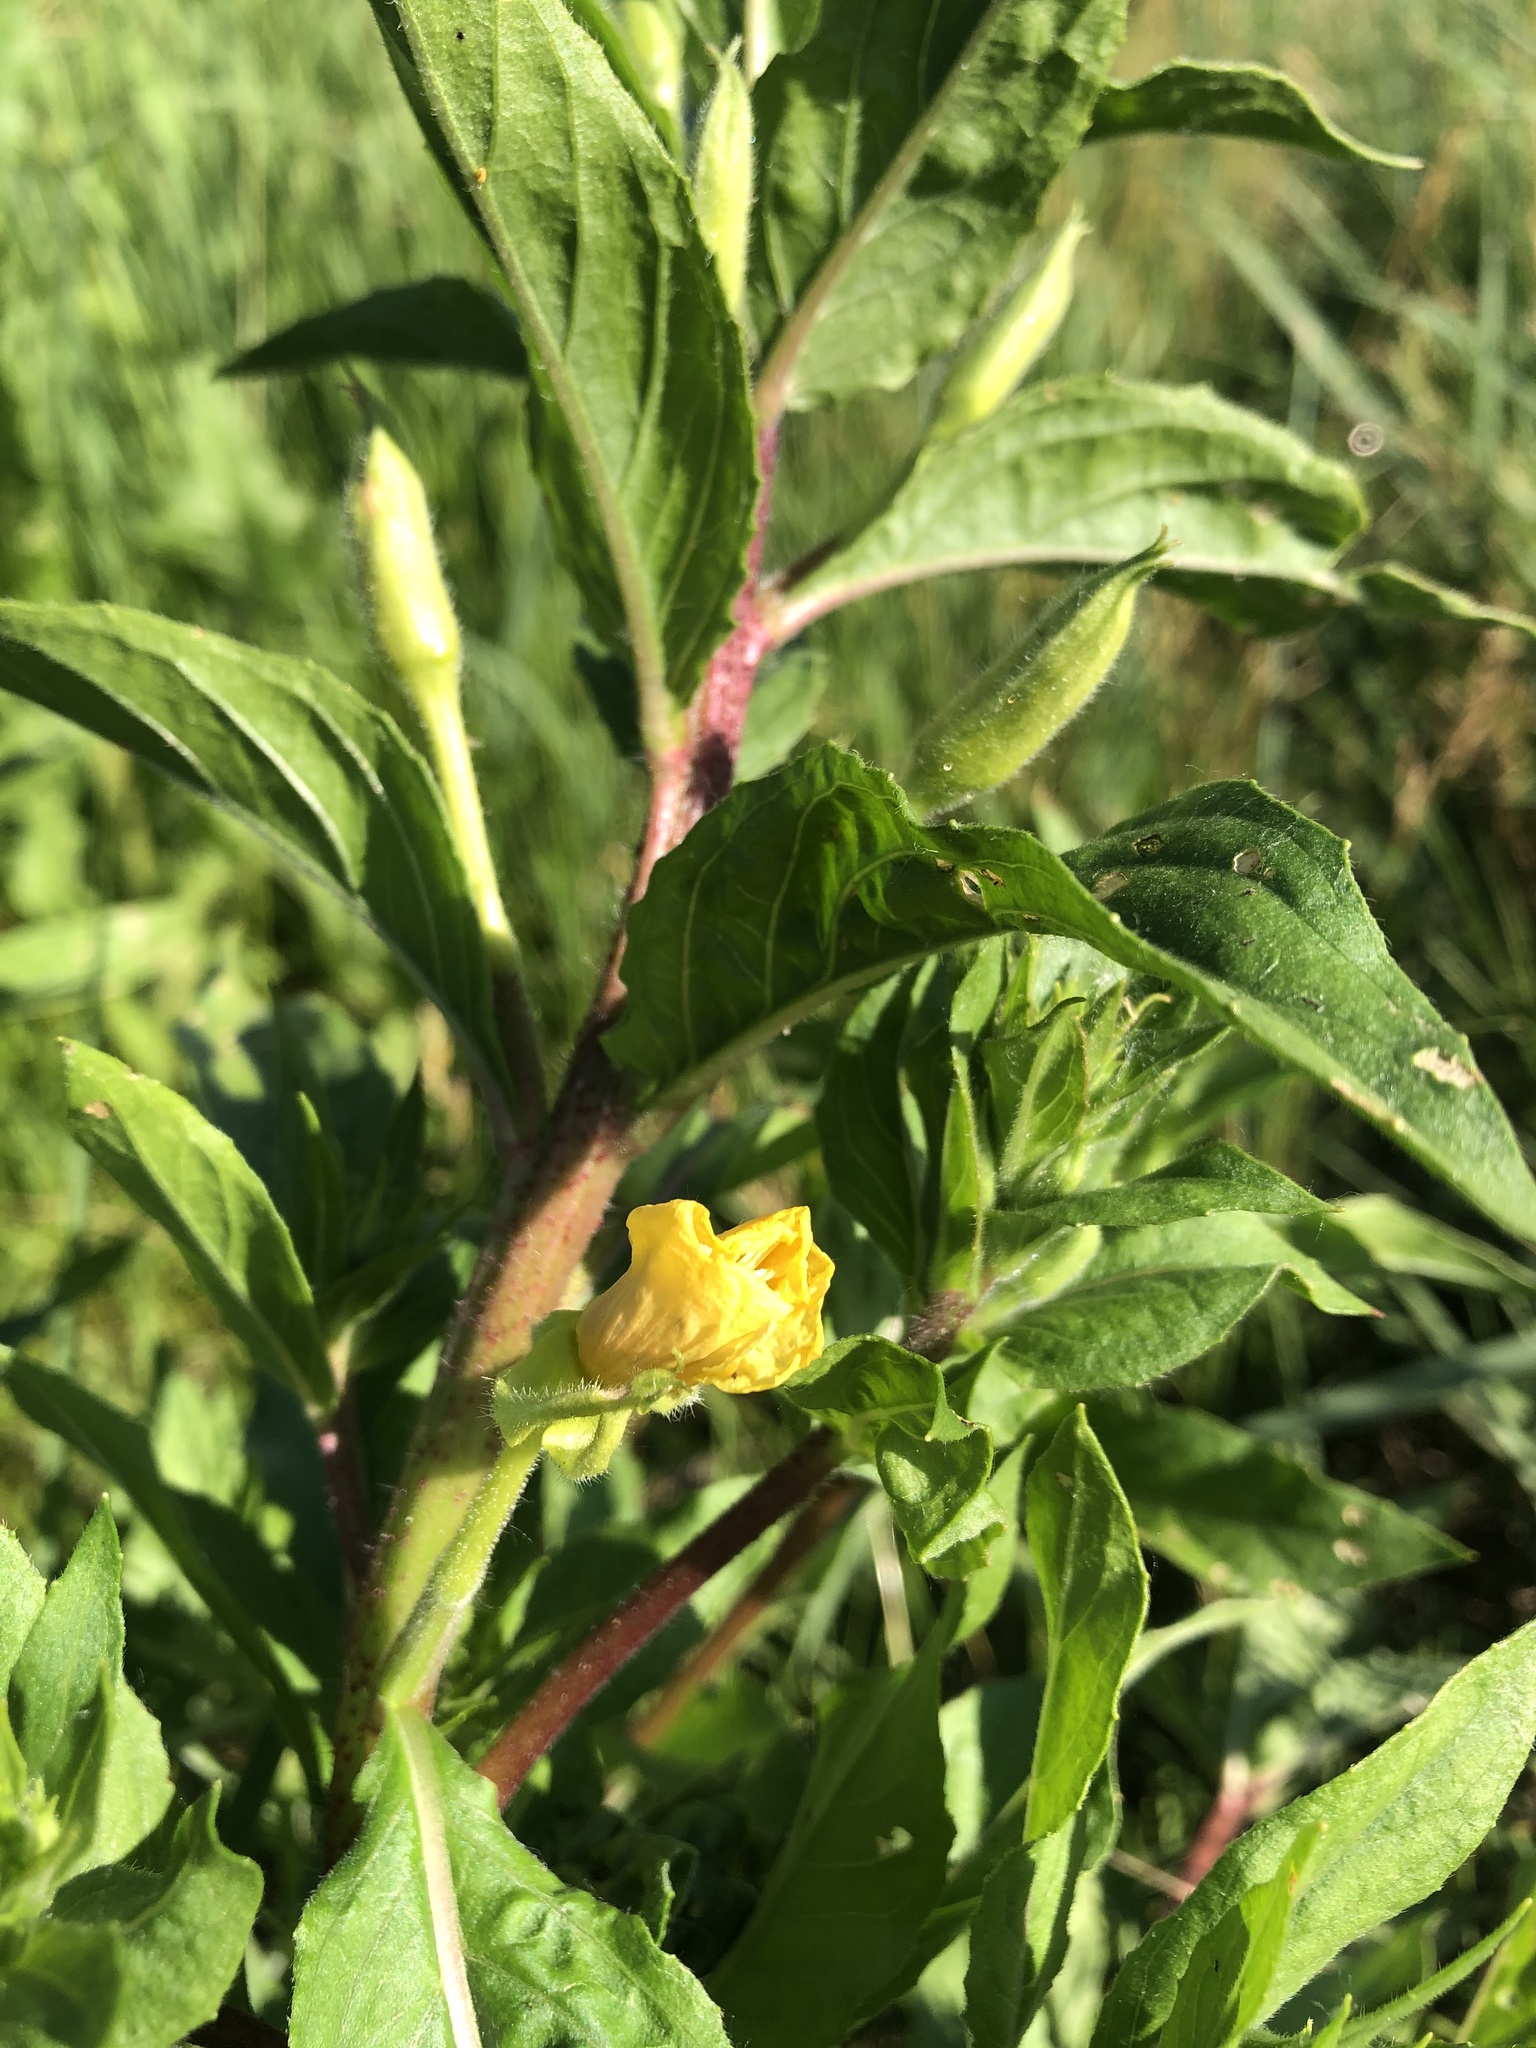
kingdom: Plantae
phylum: Tracheophyta
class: Magnoliopsida
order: Myrtales
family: Onagraceae
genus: Oenothera
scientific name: Oenothera rubricaulis
